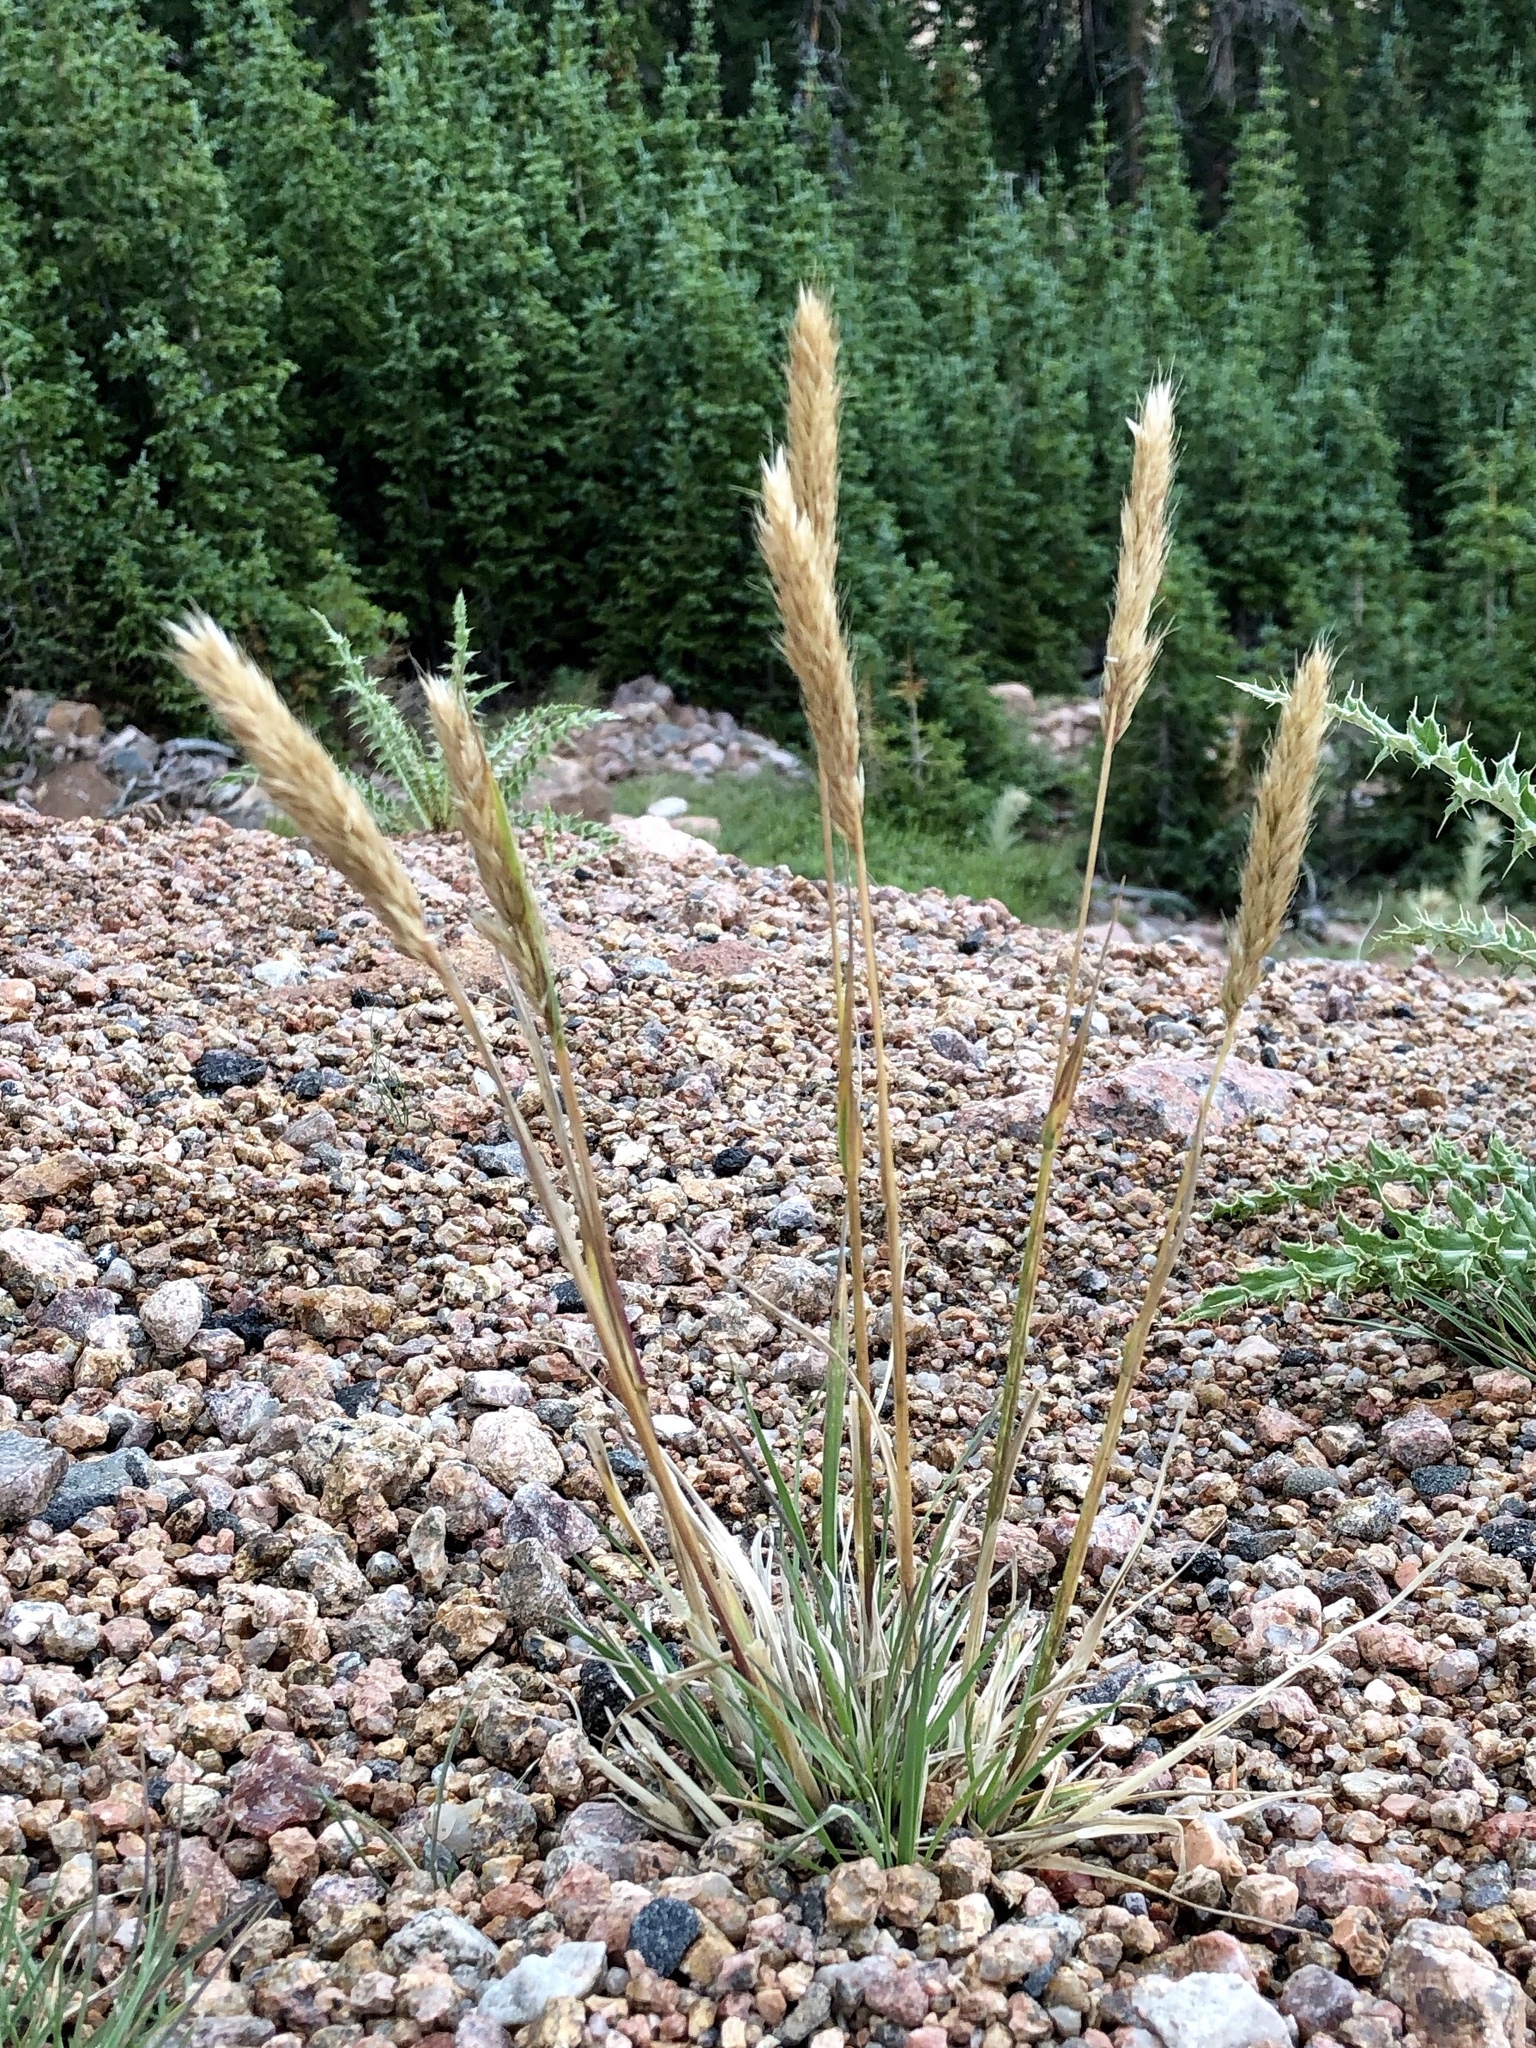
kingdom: Plantae
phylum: Tracheophyta
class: Liliopsida
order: Poales
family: Poaceae
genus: Agropyron
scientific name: Agropyron cristatum
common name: Crested wheatgrass
